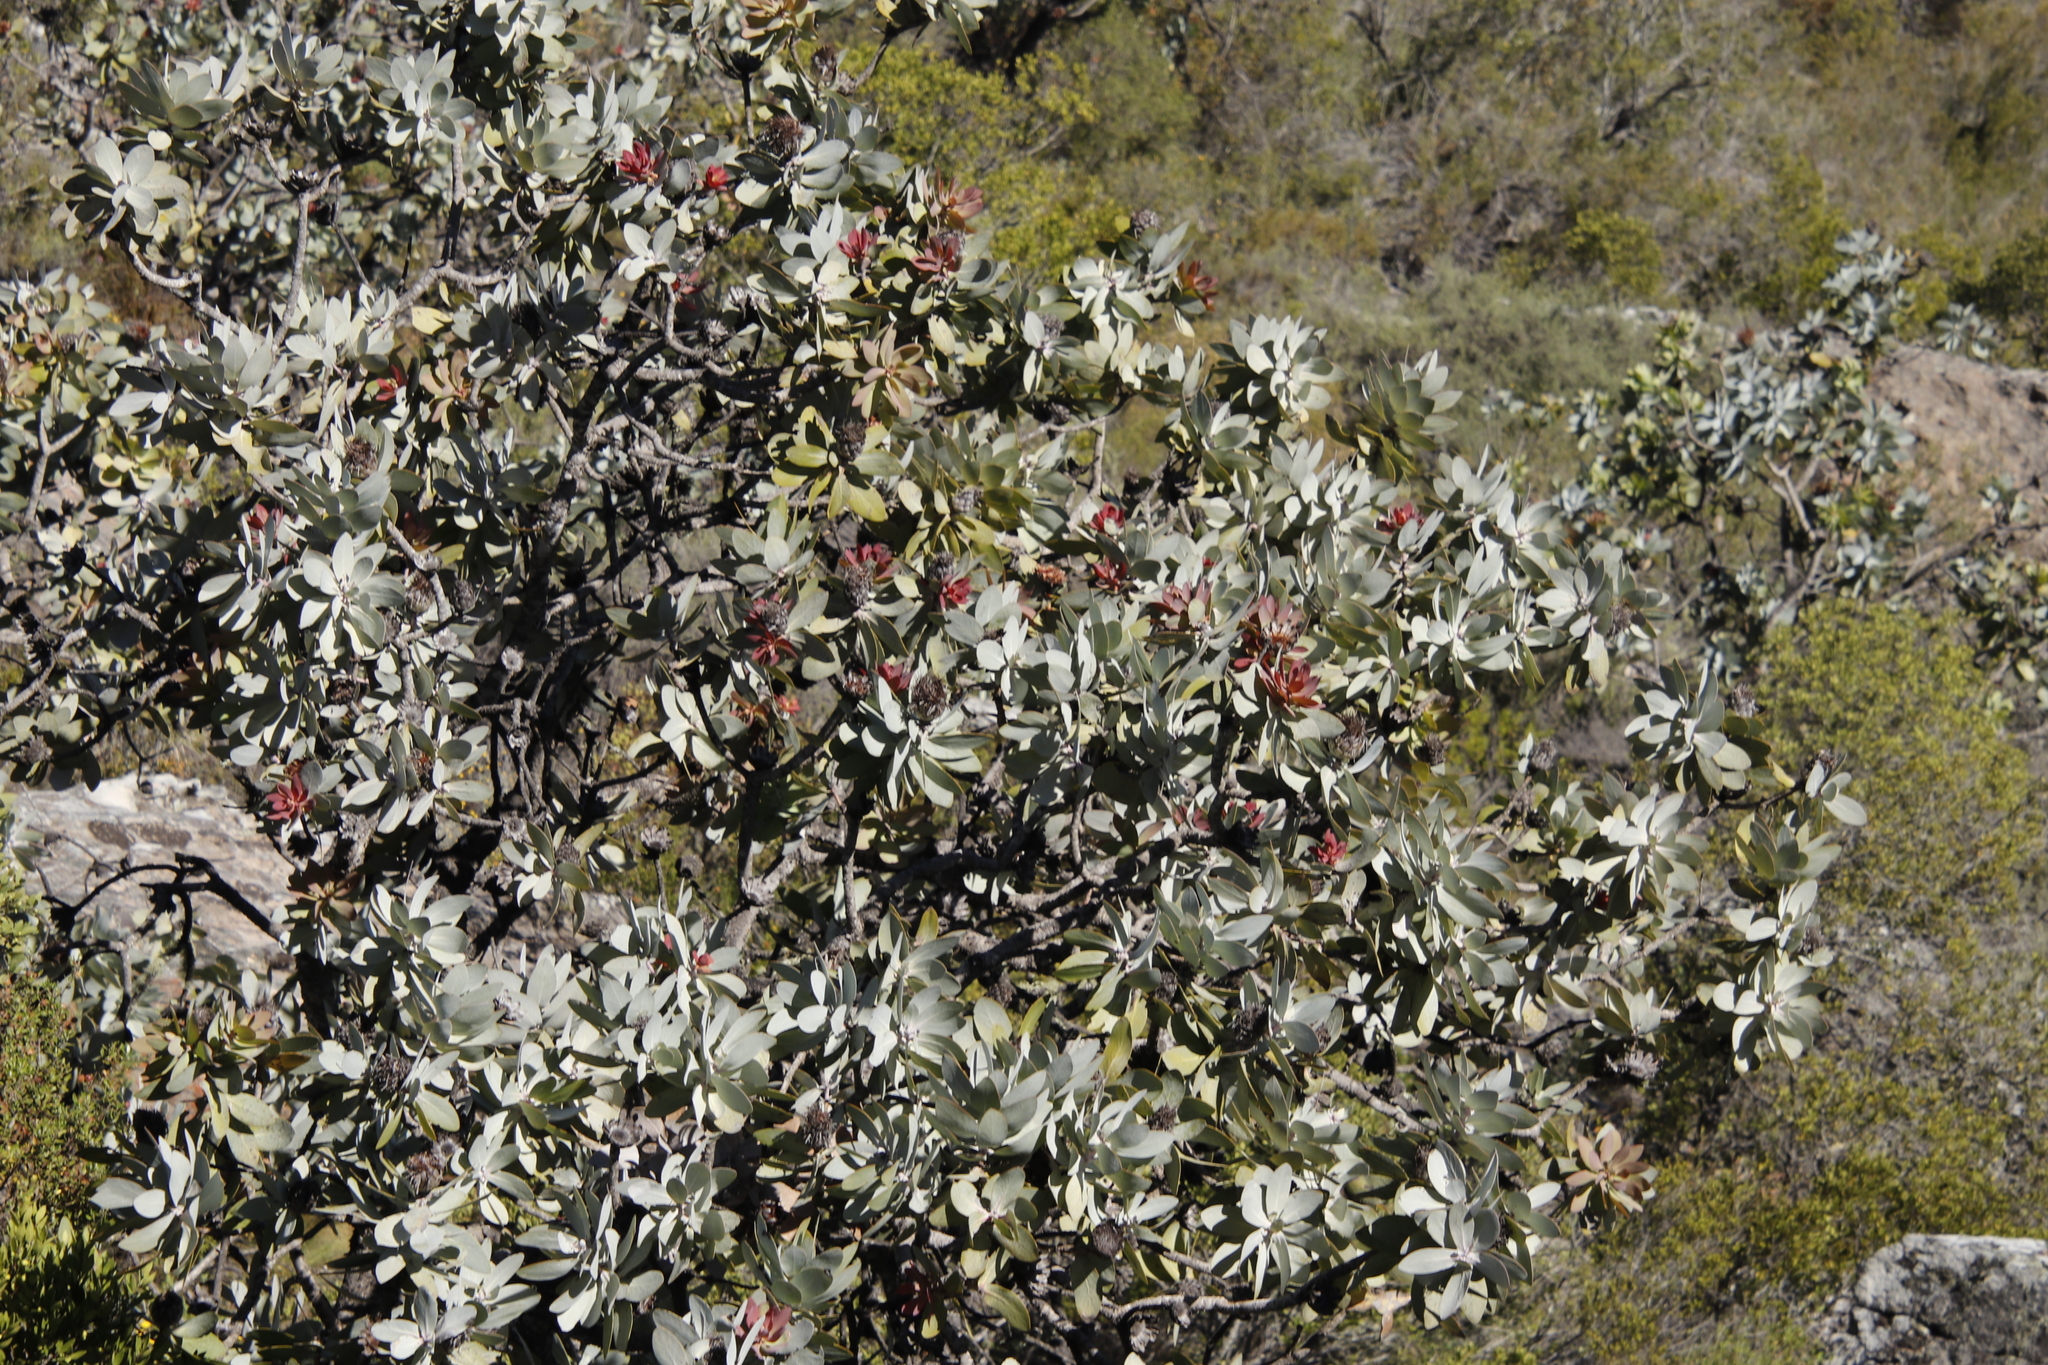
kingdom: Plantae
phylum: Tracheophyta
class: Magnoliopsida
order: Proteales
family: Proteaceae
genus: Protea
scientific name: Protea nitida
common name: Tree protea
